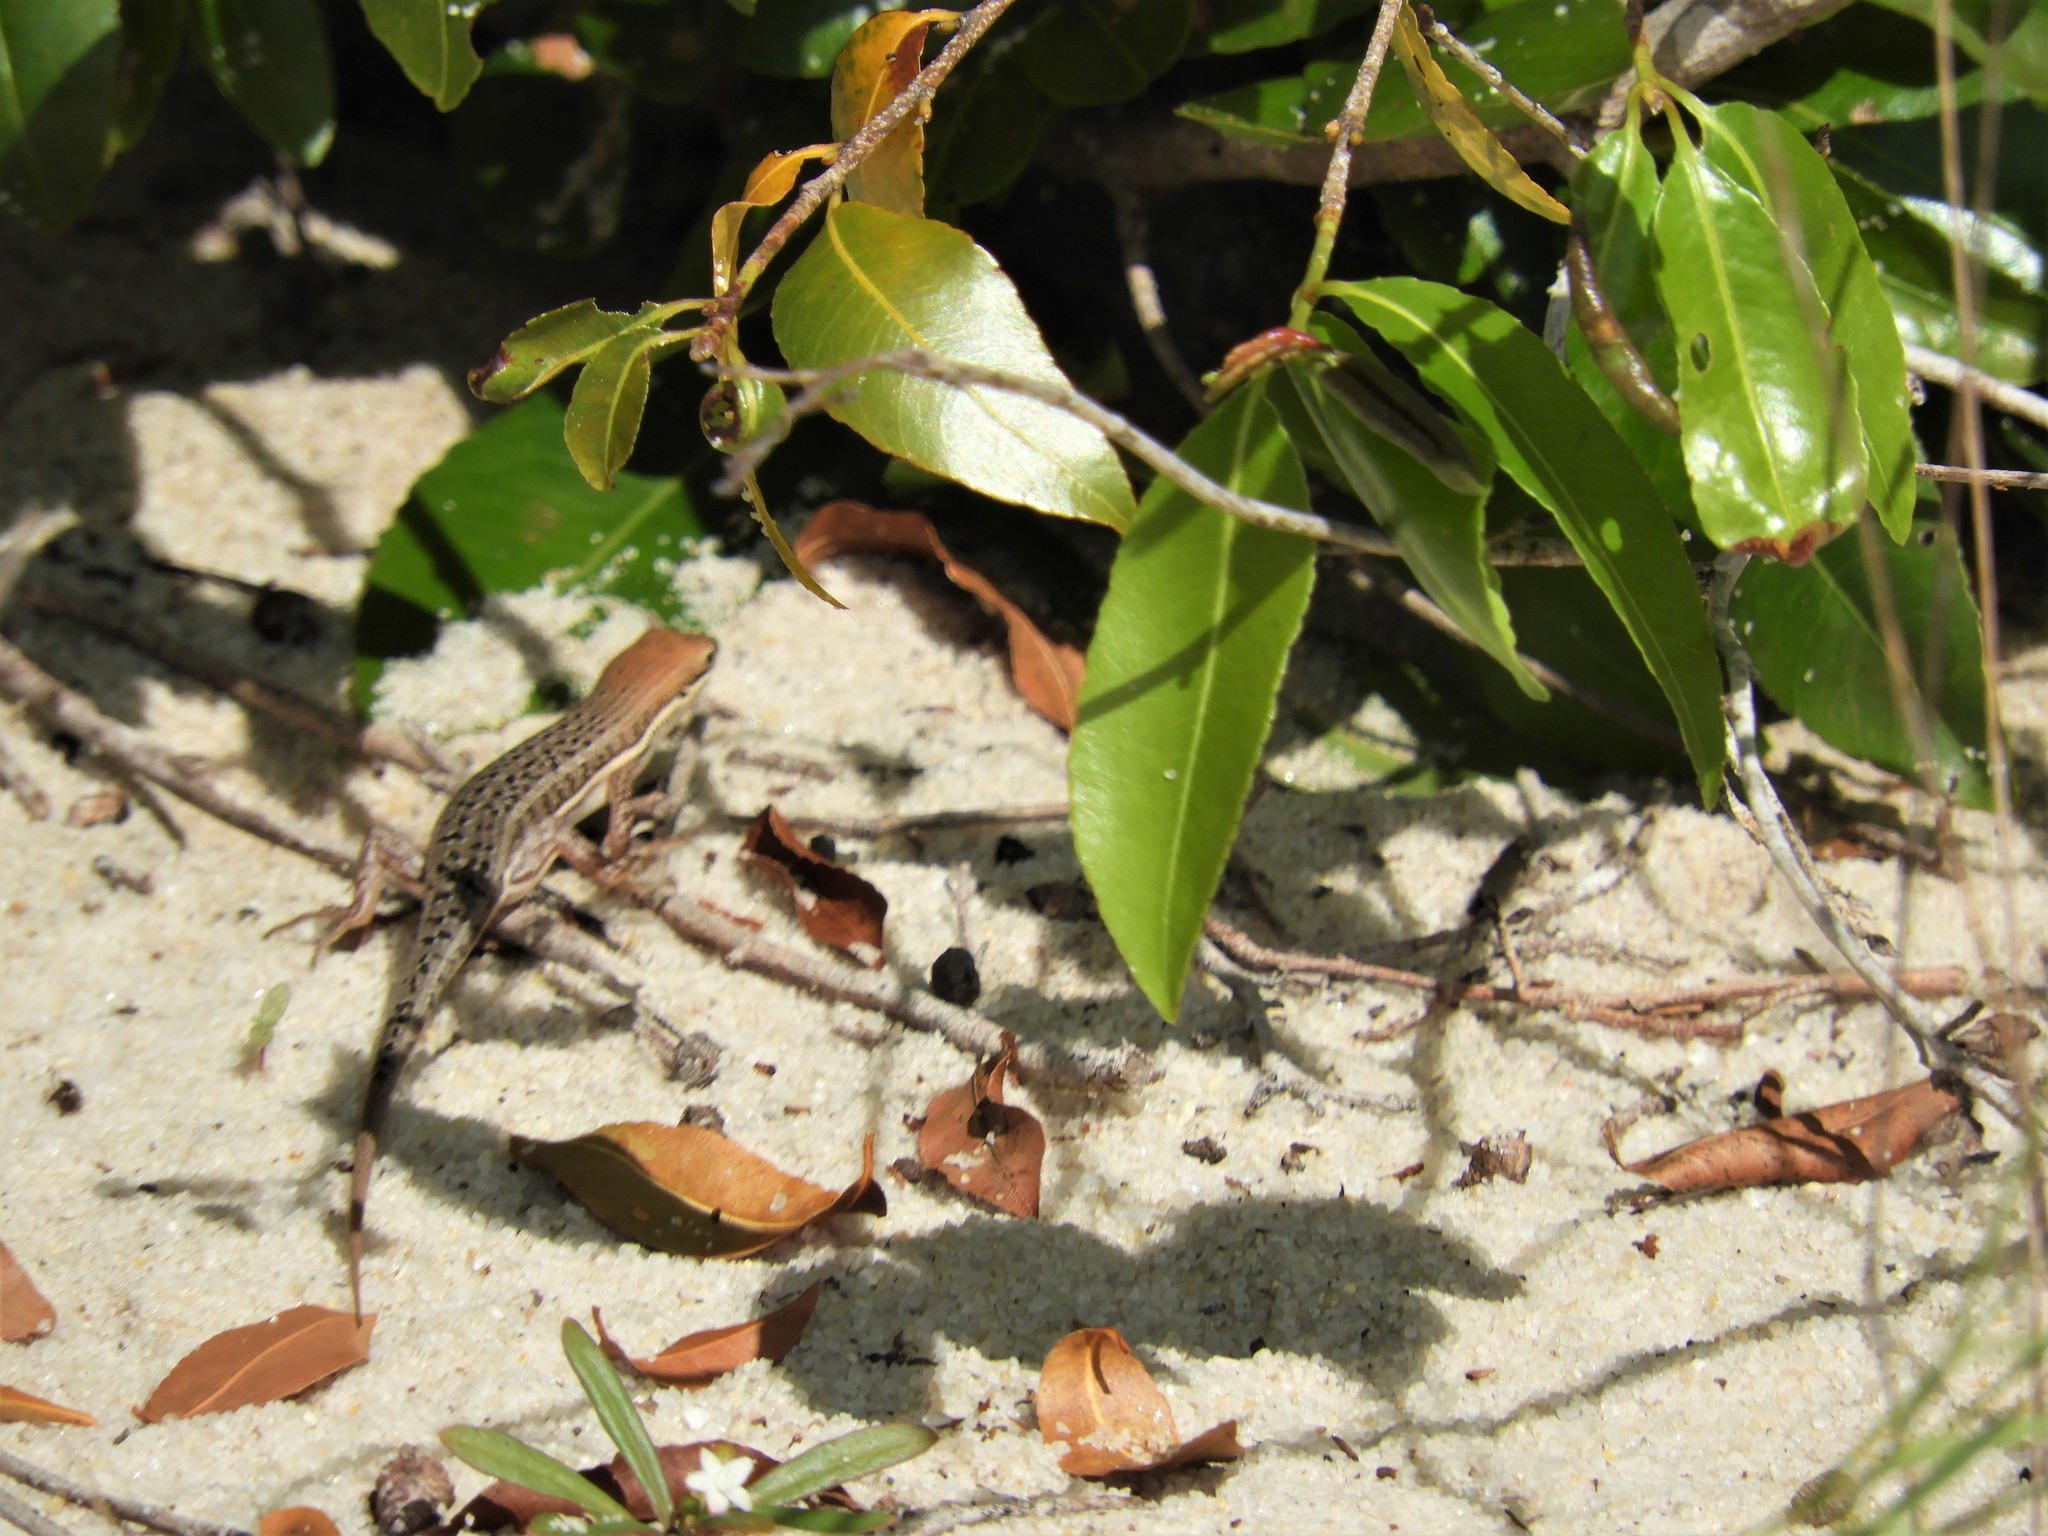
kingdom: Animalia
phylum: Chordata
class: Squamata
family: Scincidae
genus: Trachylepis
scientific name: Trachylepis varia
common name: Eastern variable skink
